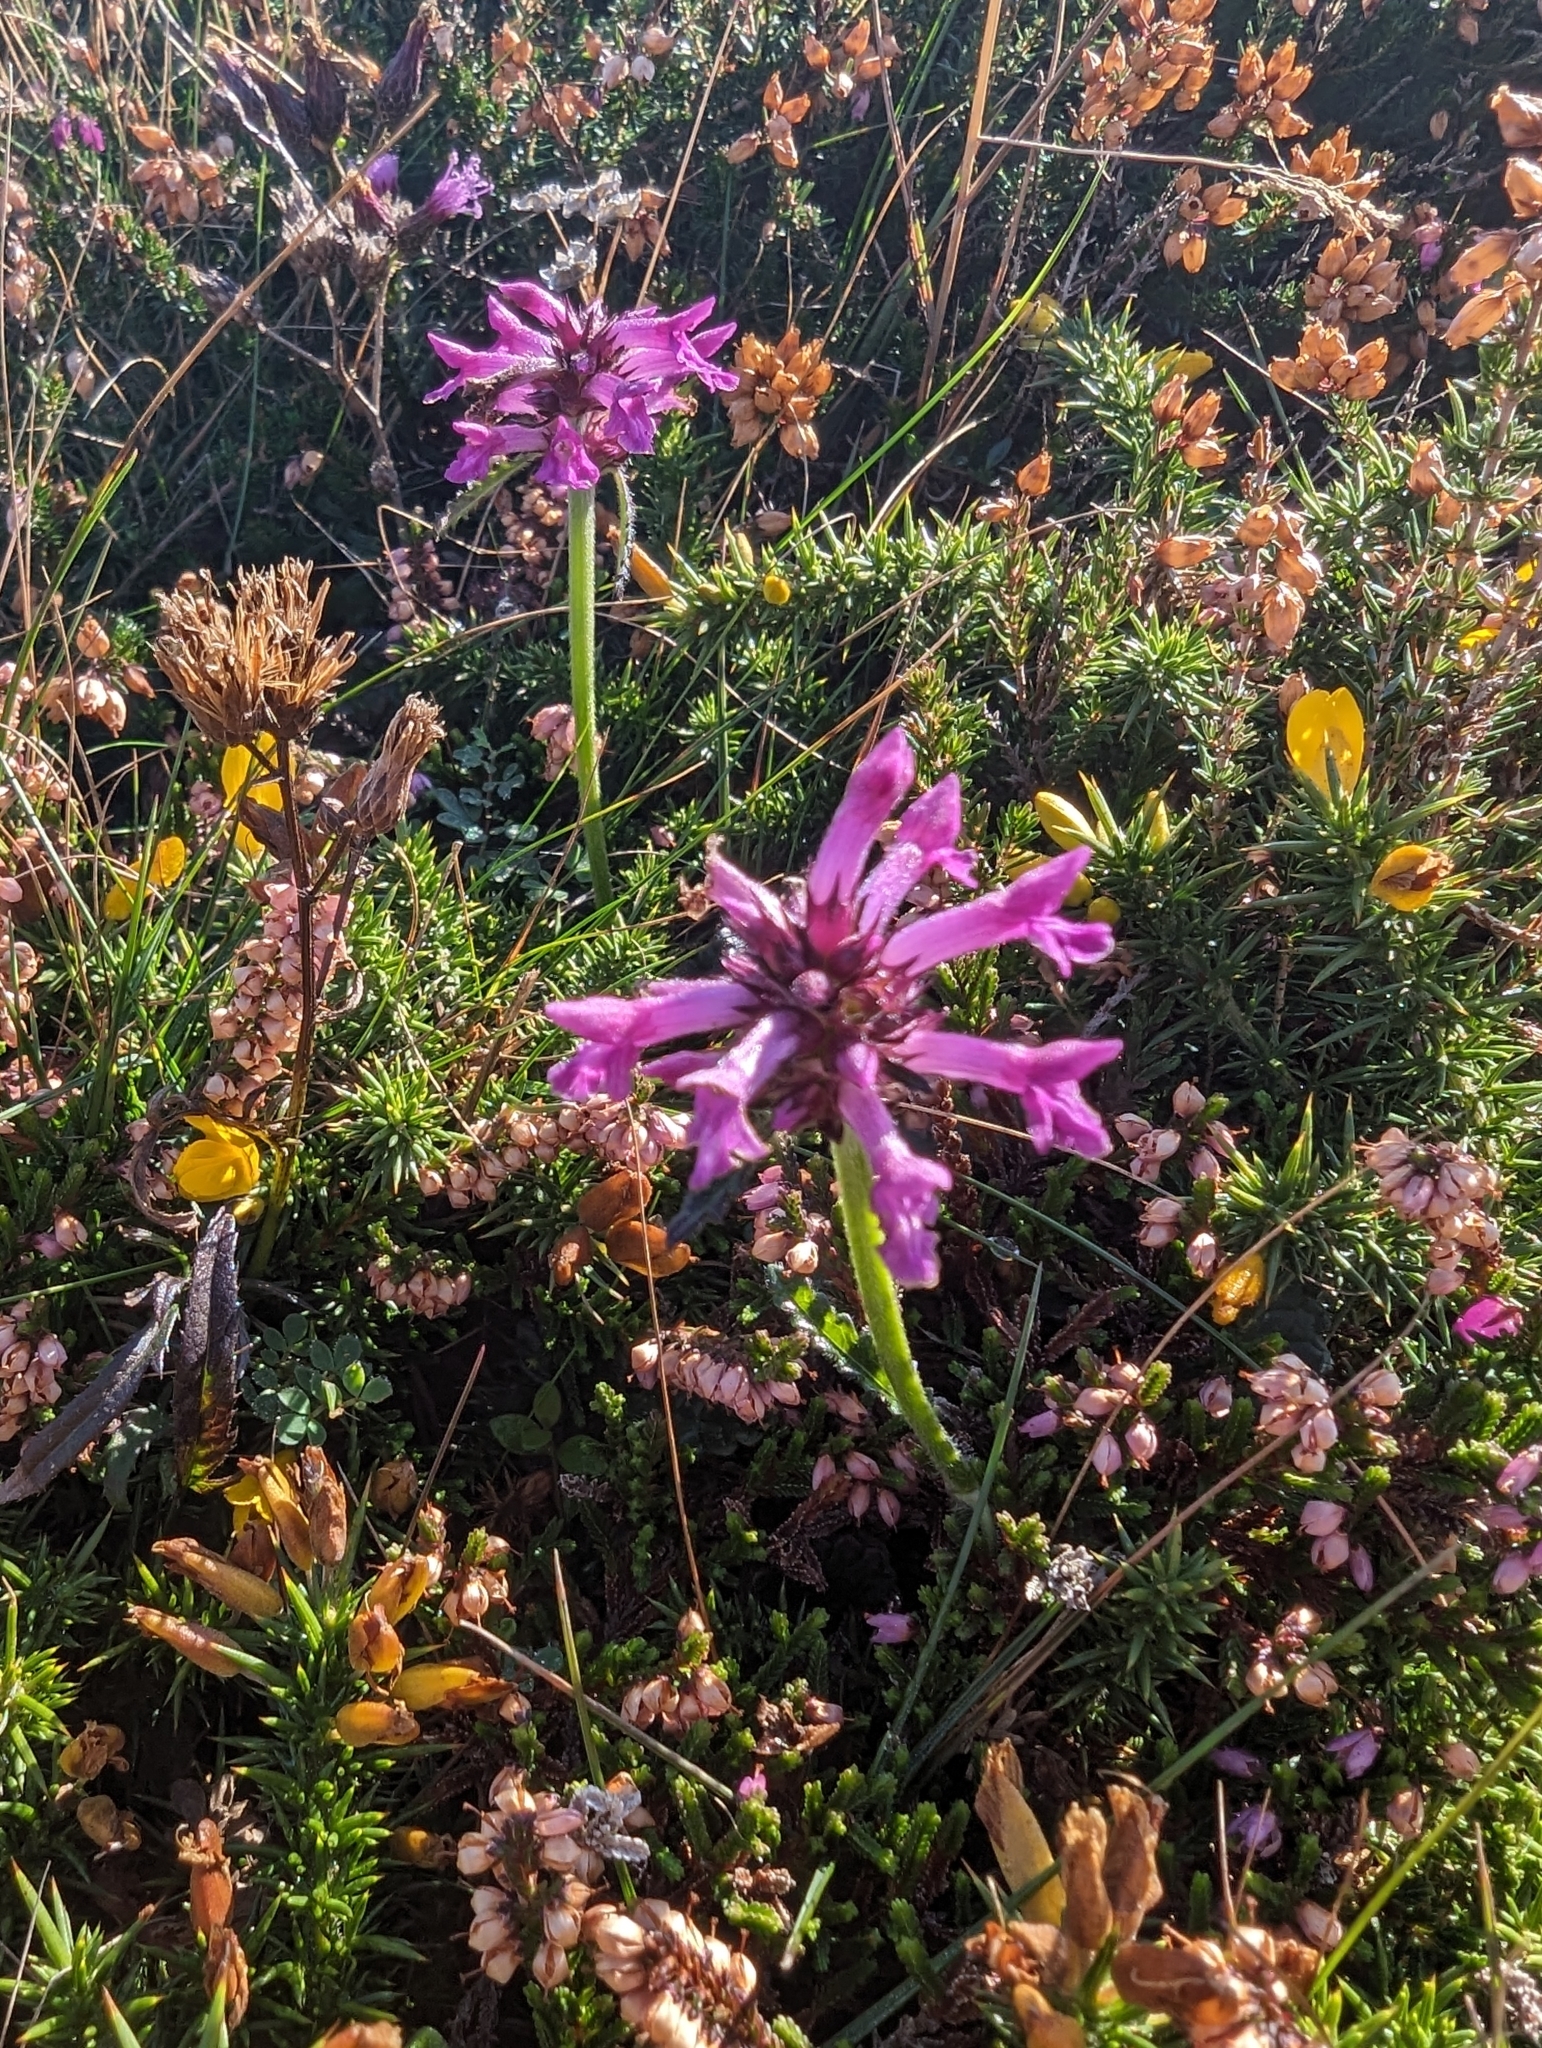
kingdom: Plantae
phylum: Tracheophyta
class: Magnoliopsida
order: Lamiales
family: Lamiaceae
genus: Betonica
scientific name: Betonica officinalis
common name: Bishop's-wort
